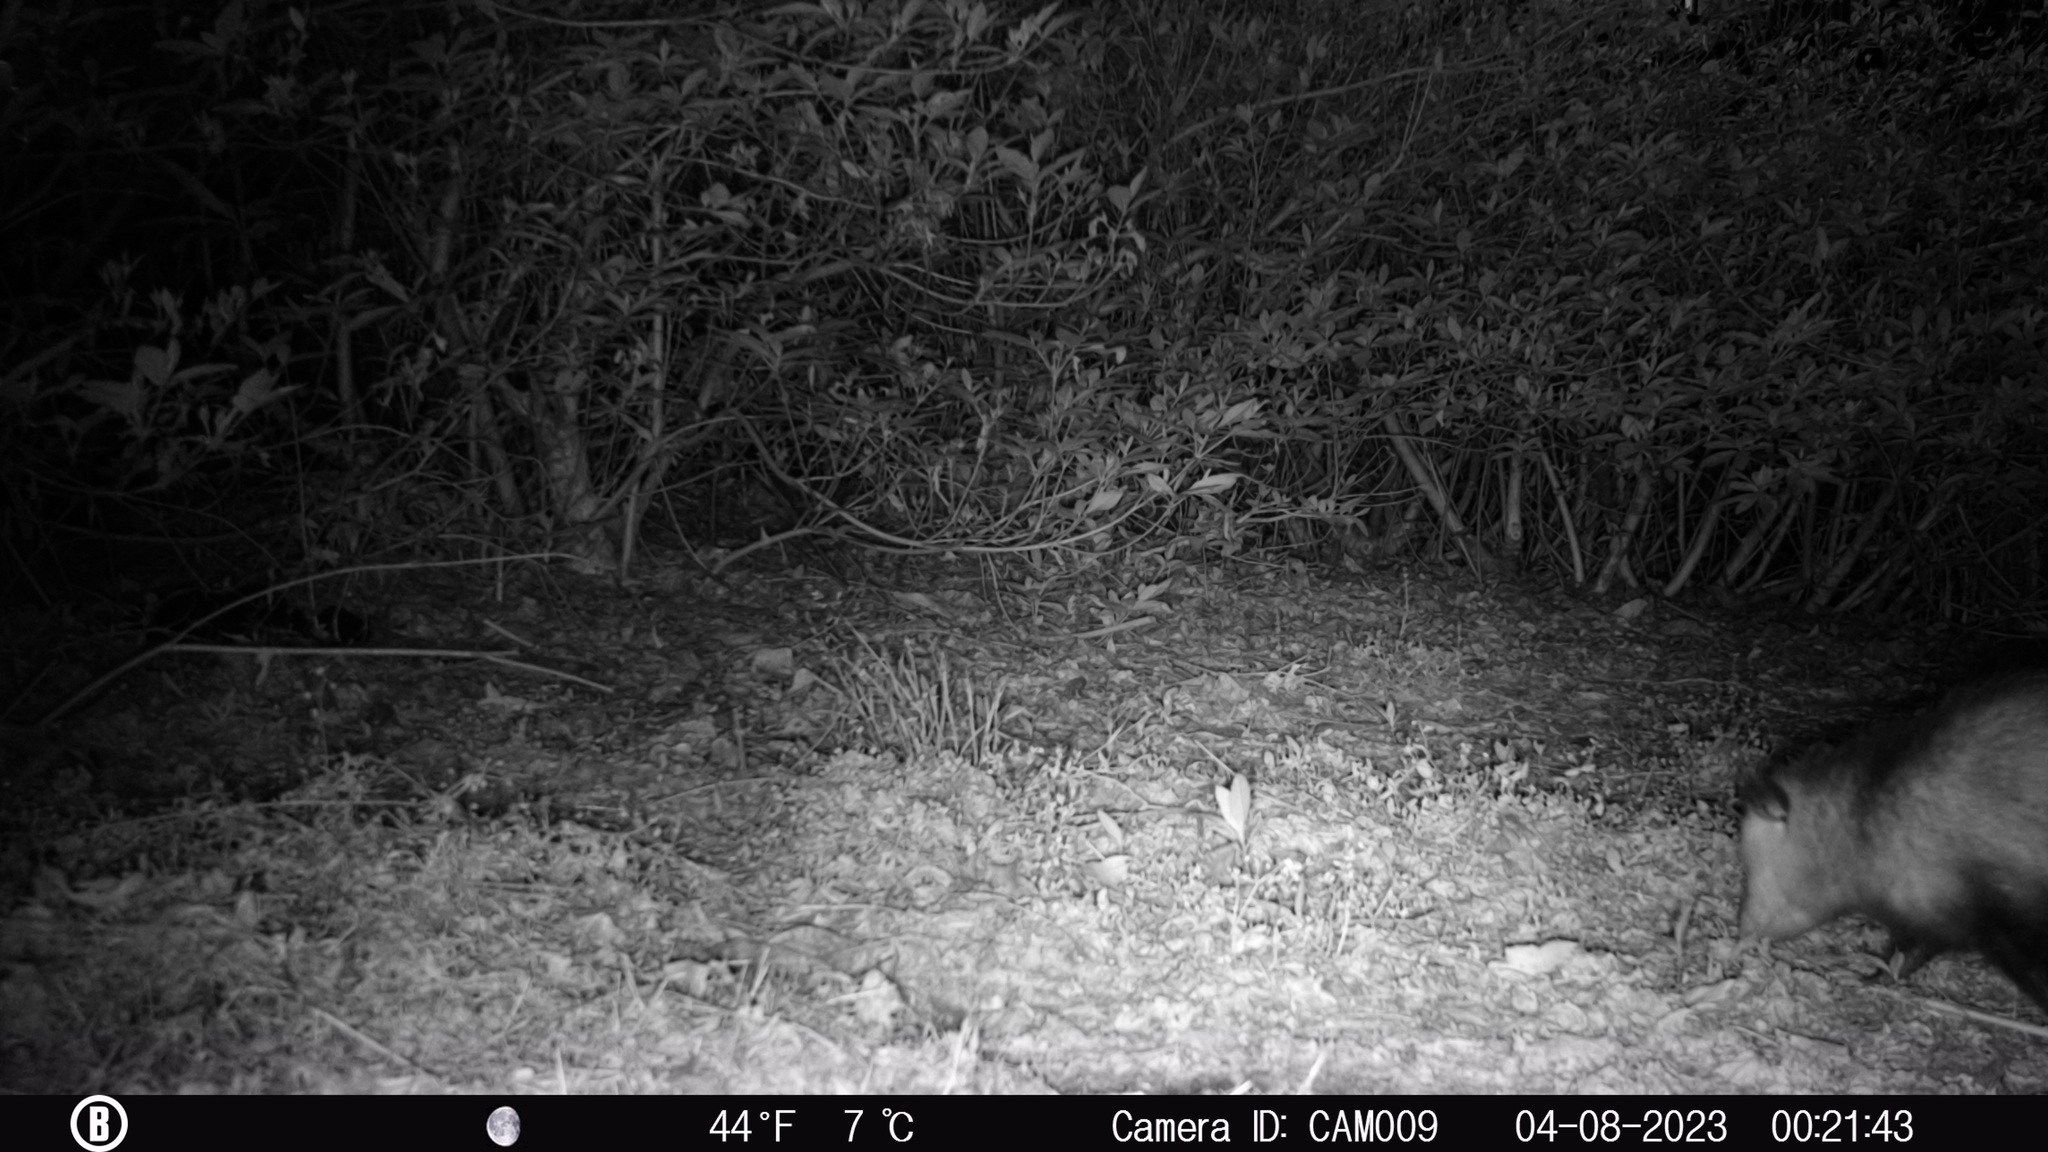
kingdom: Animalia
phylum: Chordata
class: Mammalia
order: Didelphimorphia
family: Didelphidae
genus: Didelphis
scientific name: Didelphis virginiana
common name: Virginia opossum
